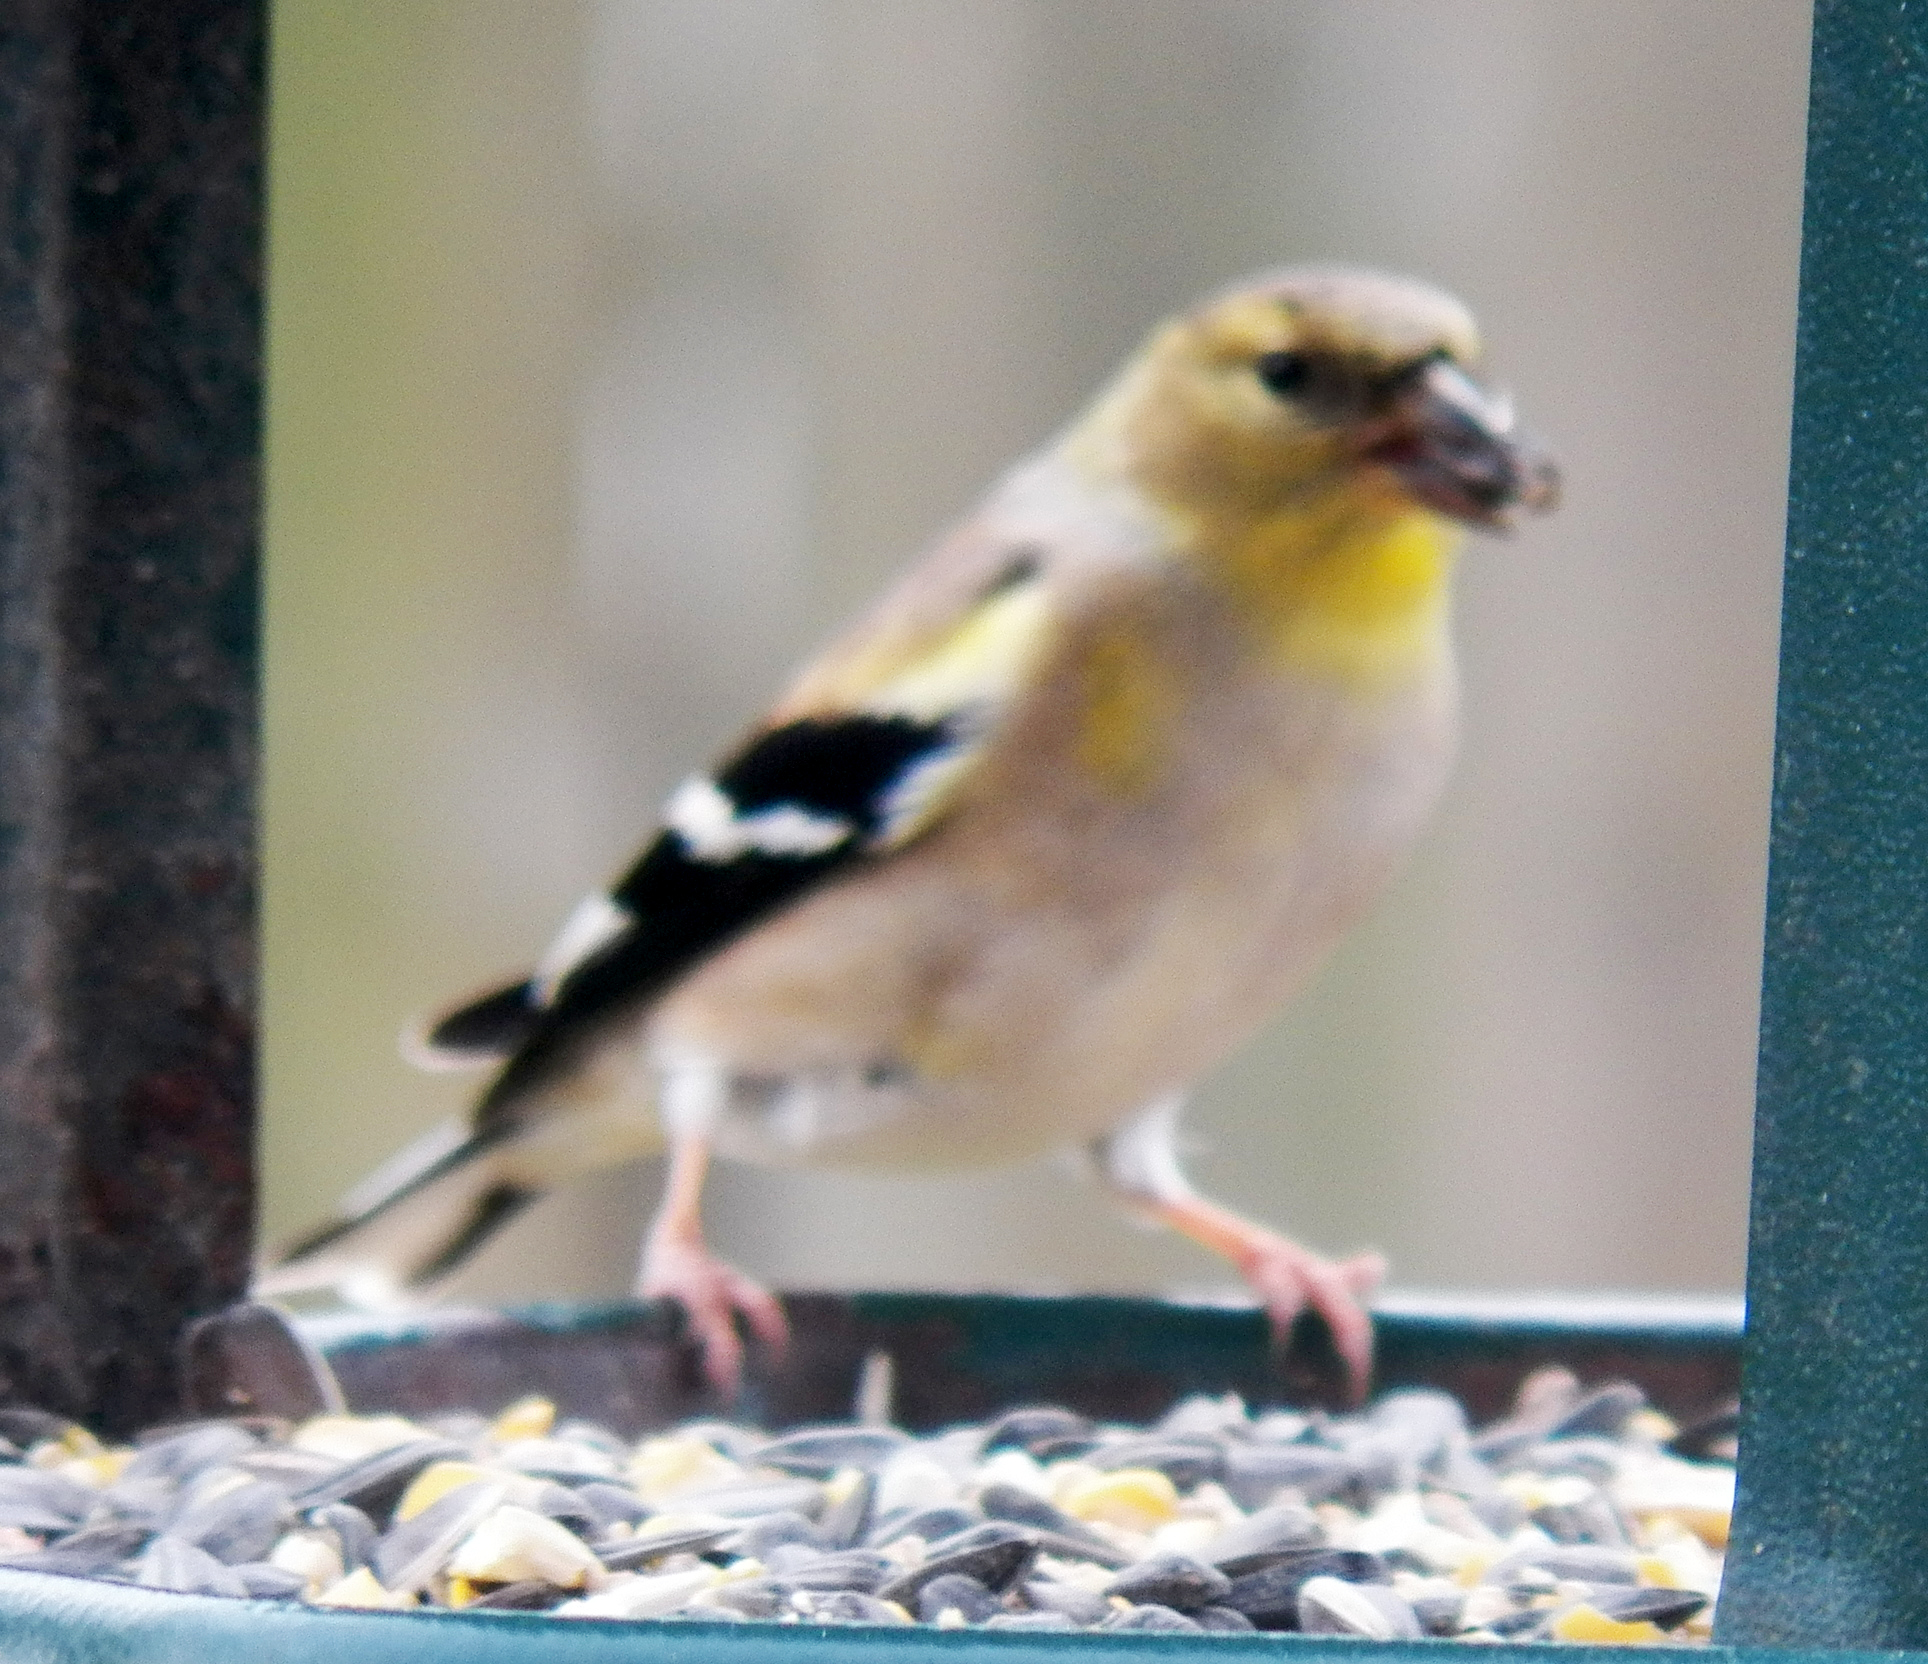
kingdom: Animalia
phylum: Chordata
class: Aves
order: Passeriformes
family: Fringillidae
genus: Spinus
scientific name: Spinus tristis
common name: American goldfinch
